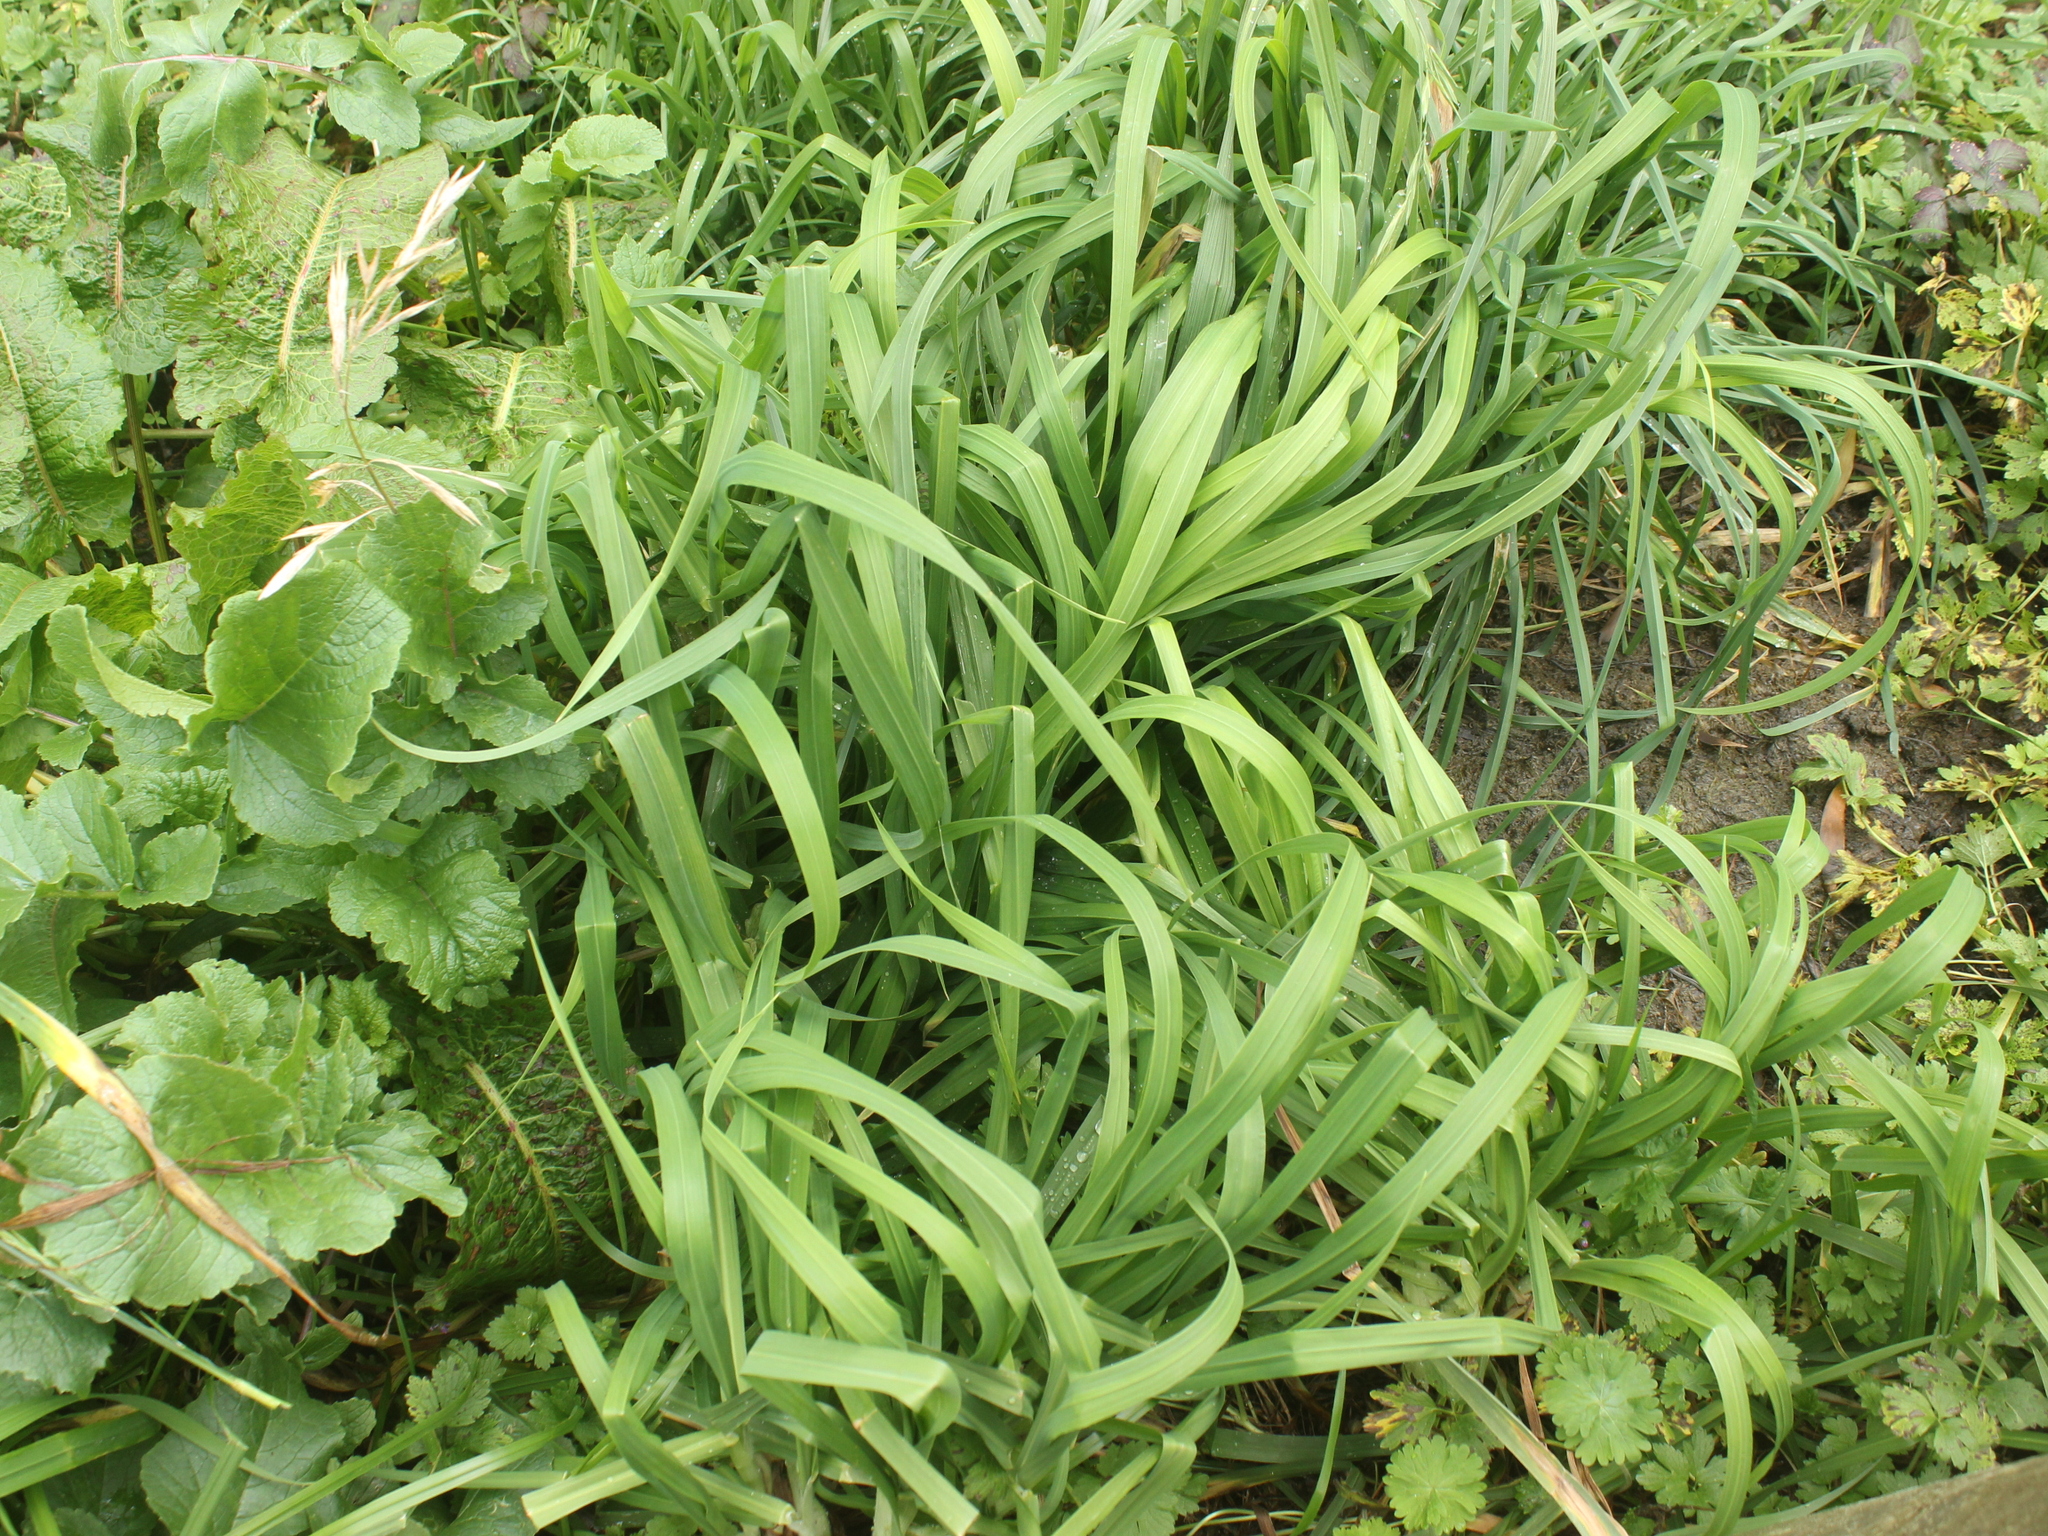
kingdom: Plantae
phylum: Tracheophyta
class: Liliopsida
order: Poales
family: Poaceae
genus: Bromus
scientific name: Bromus catharticus
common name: Rescuegrass
